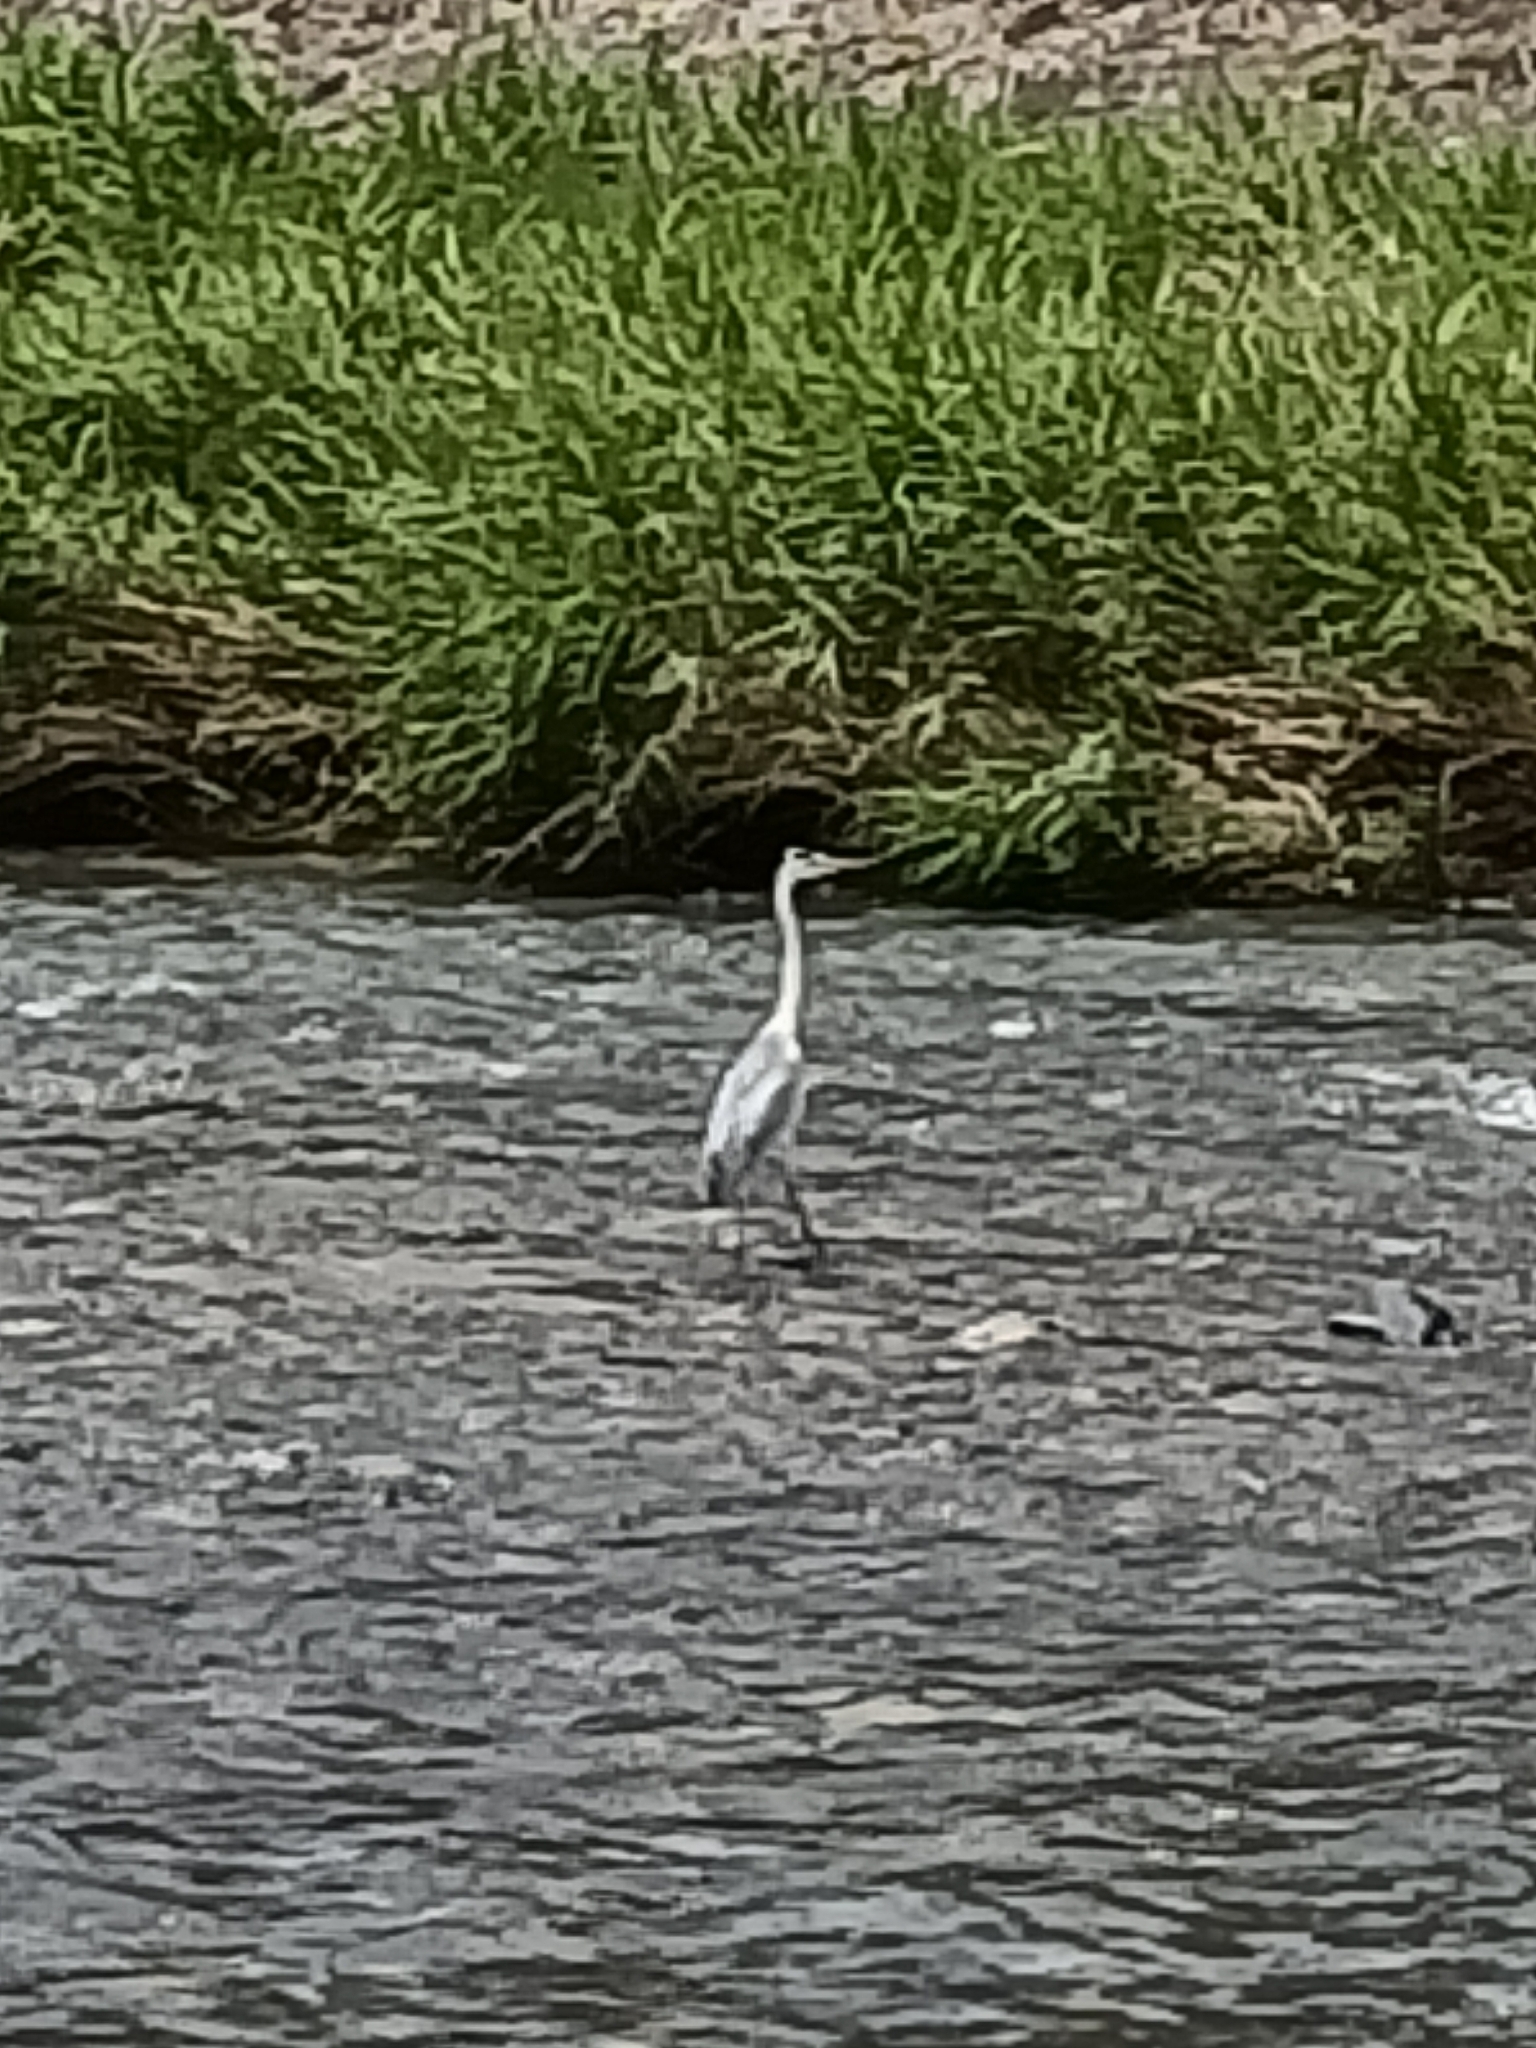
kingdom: Animalia
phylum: Chordata
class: Aves
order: Pelecaniformes
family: Ardeidae
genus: Ardea
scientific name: Ardea cinerea
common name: Grey heron
